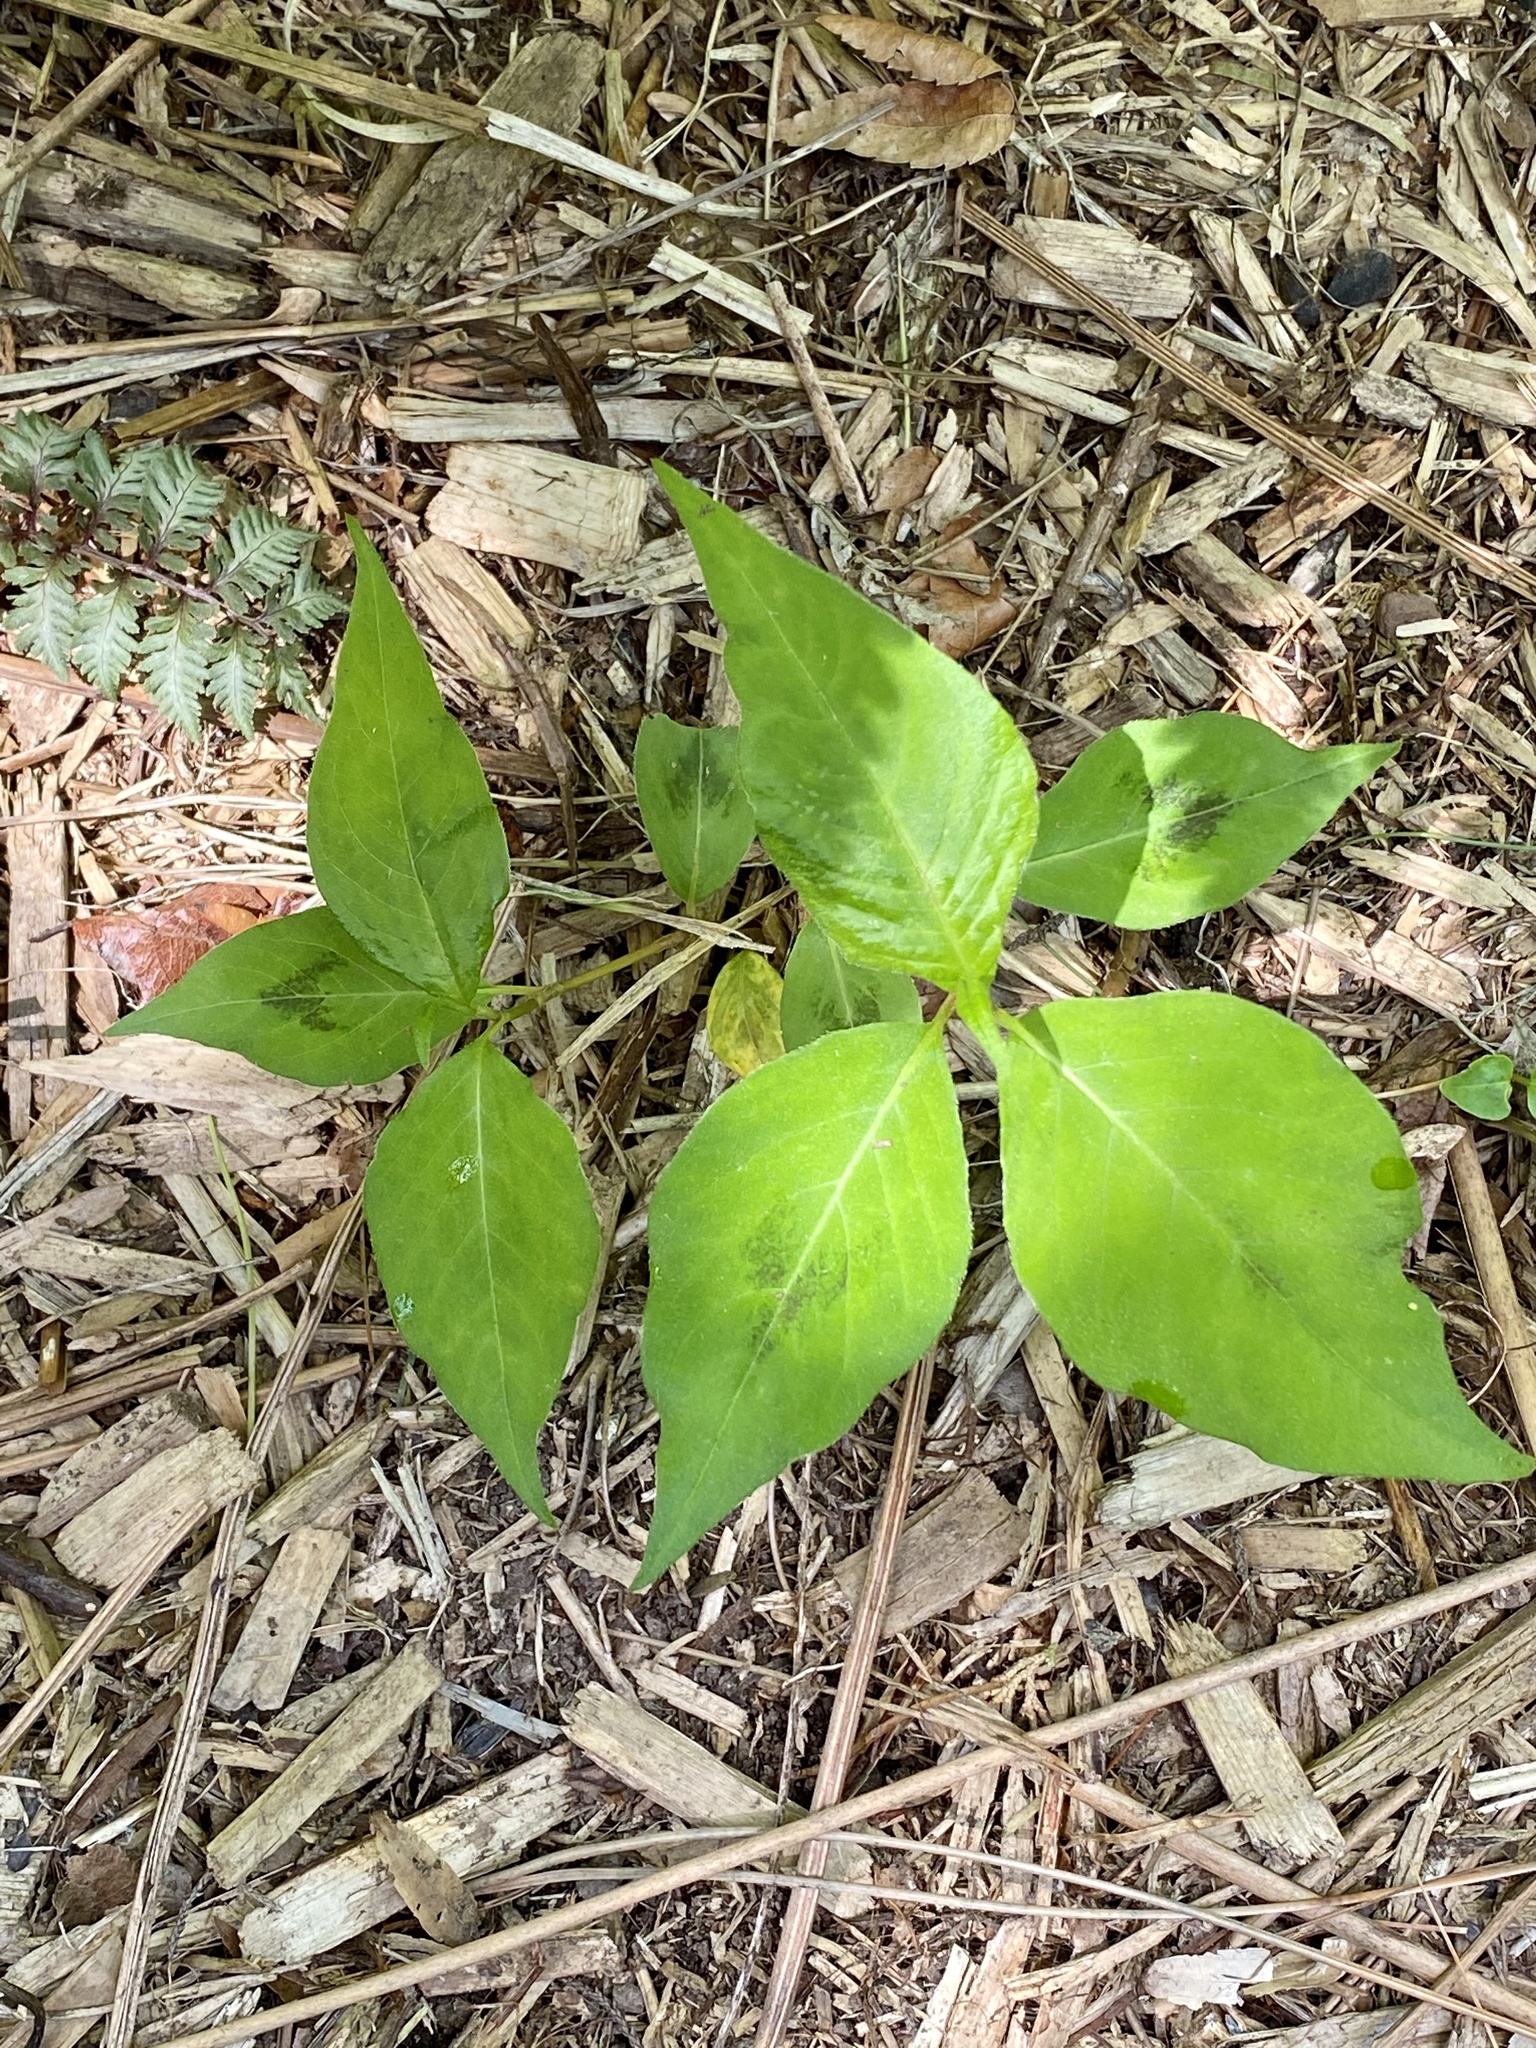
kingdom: Plantae
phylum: Tracheophyta
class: Magnoliopsida
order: Caryophyllales
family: Polygonaceae
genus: Persicaria
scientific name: Persicaria virginiana
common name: Jumpseed
